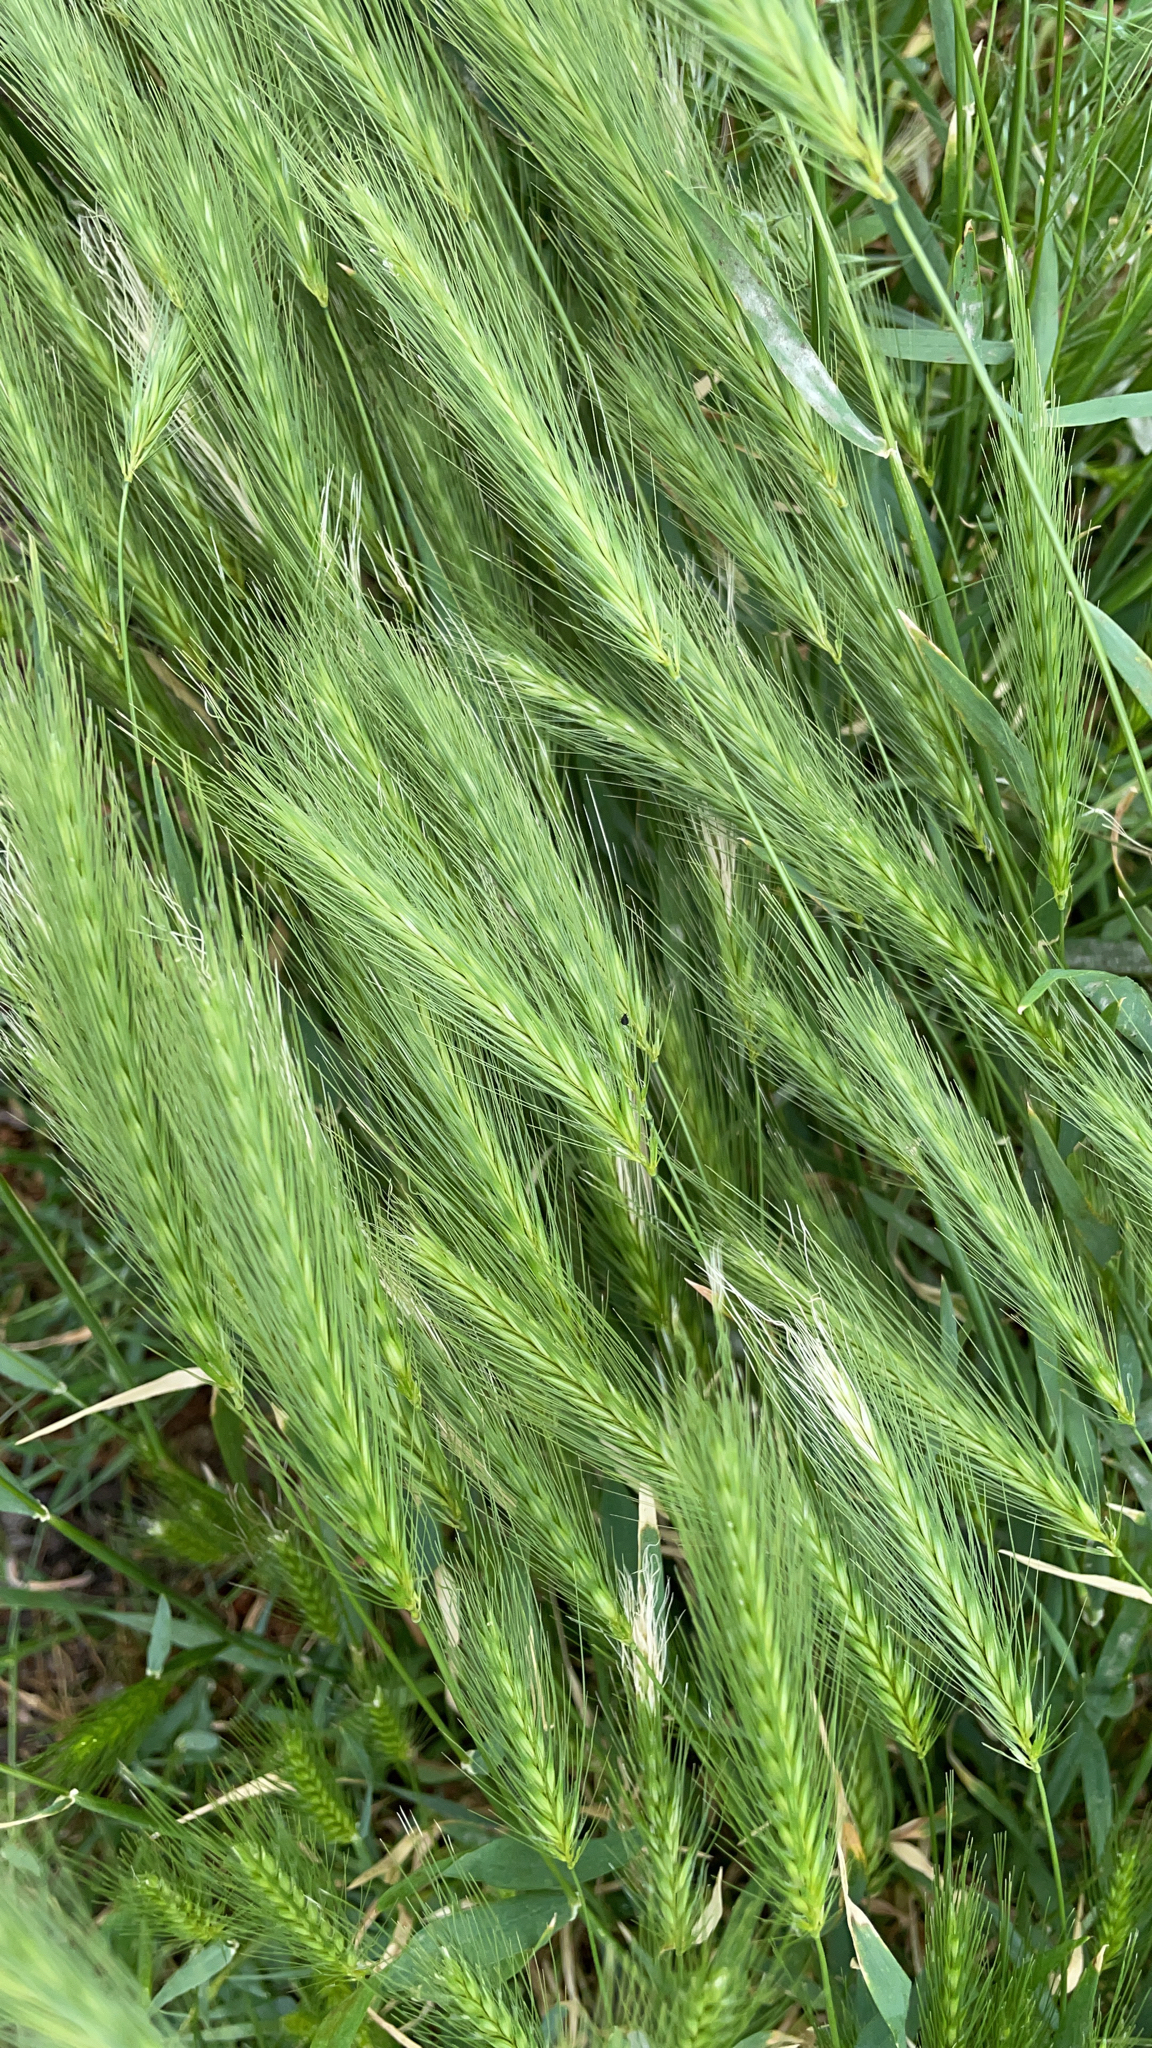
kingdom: Plantae
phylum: Tracheophyta
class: Liliopsida
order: Poales
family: Poaceae
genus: Hordeum
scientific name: Hordeum murinum
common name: Wall barley
